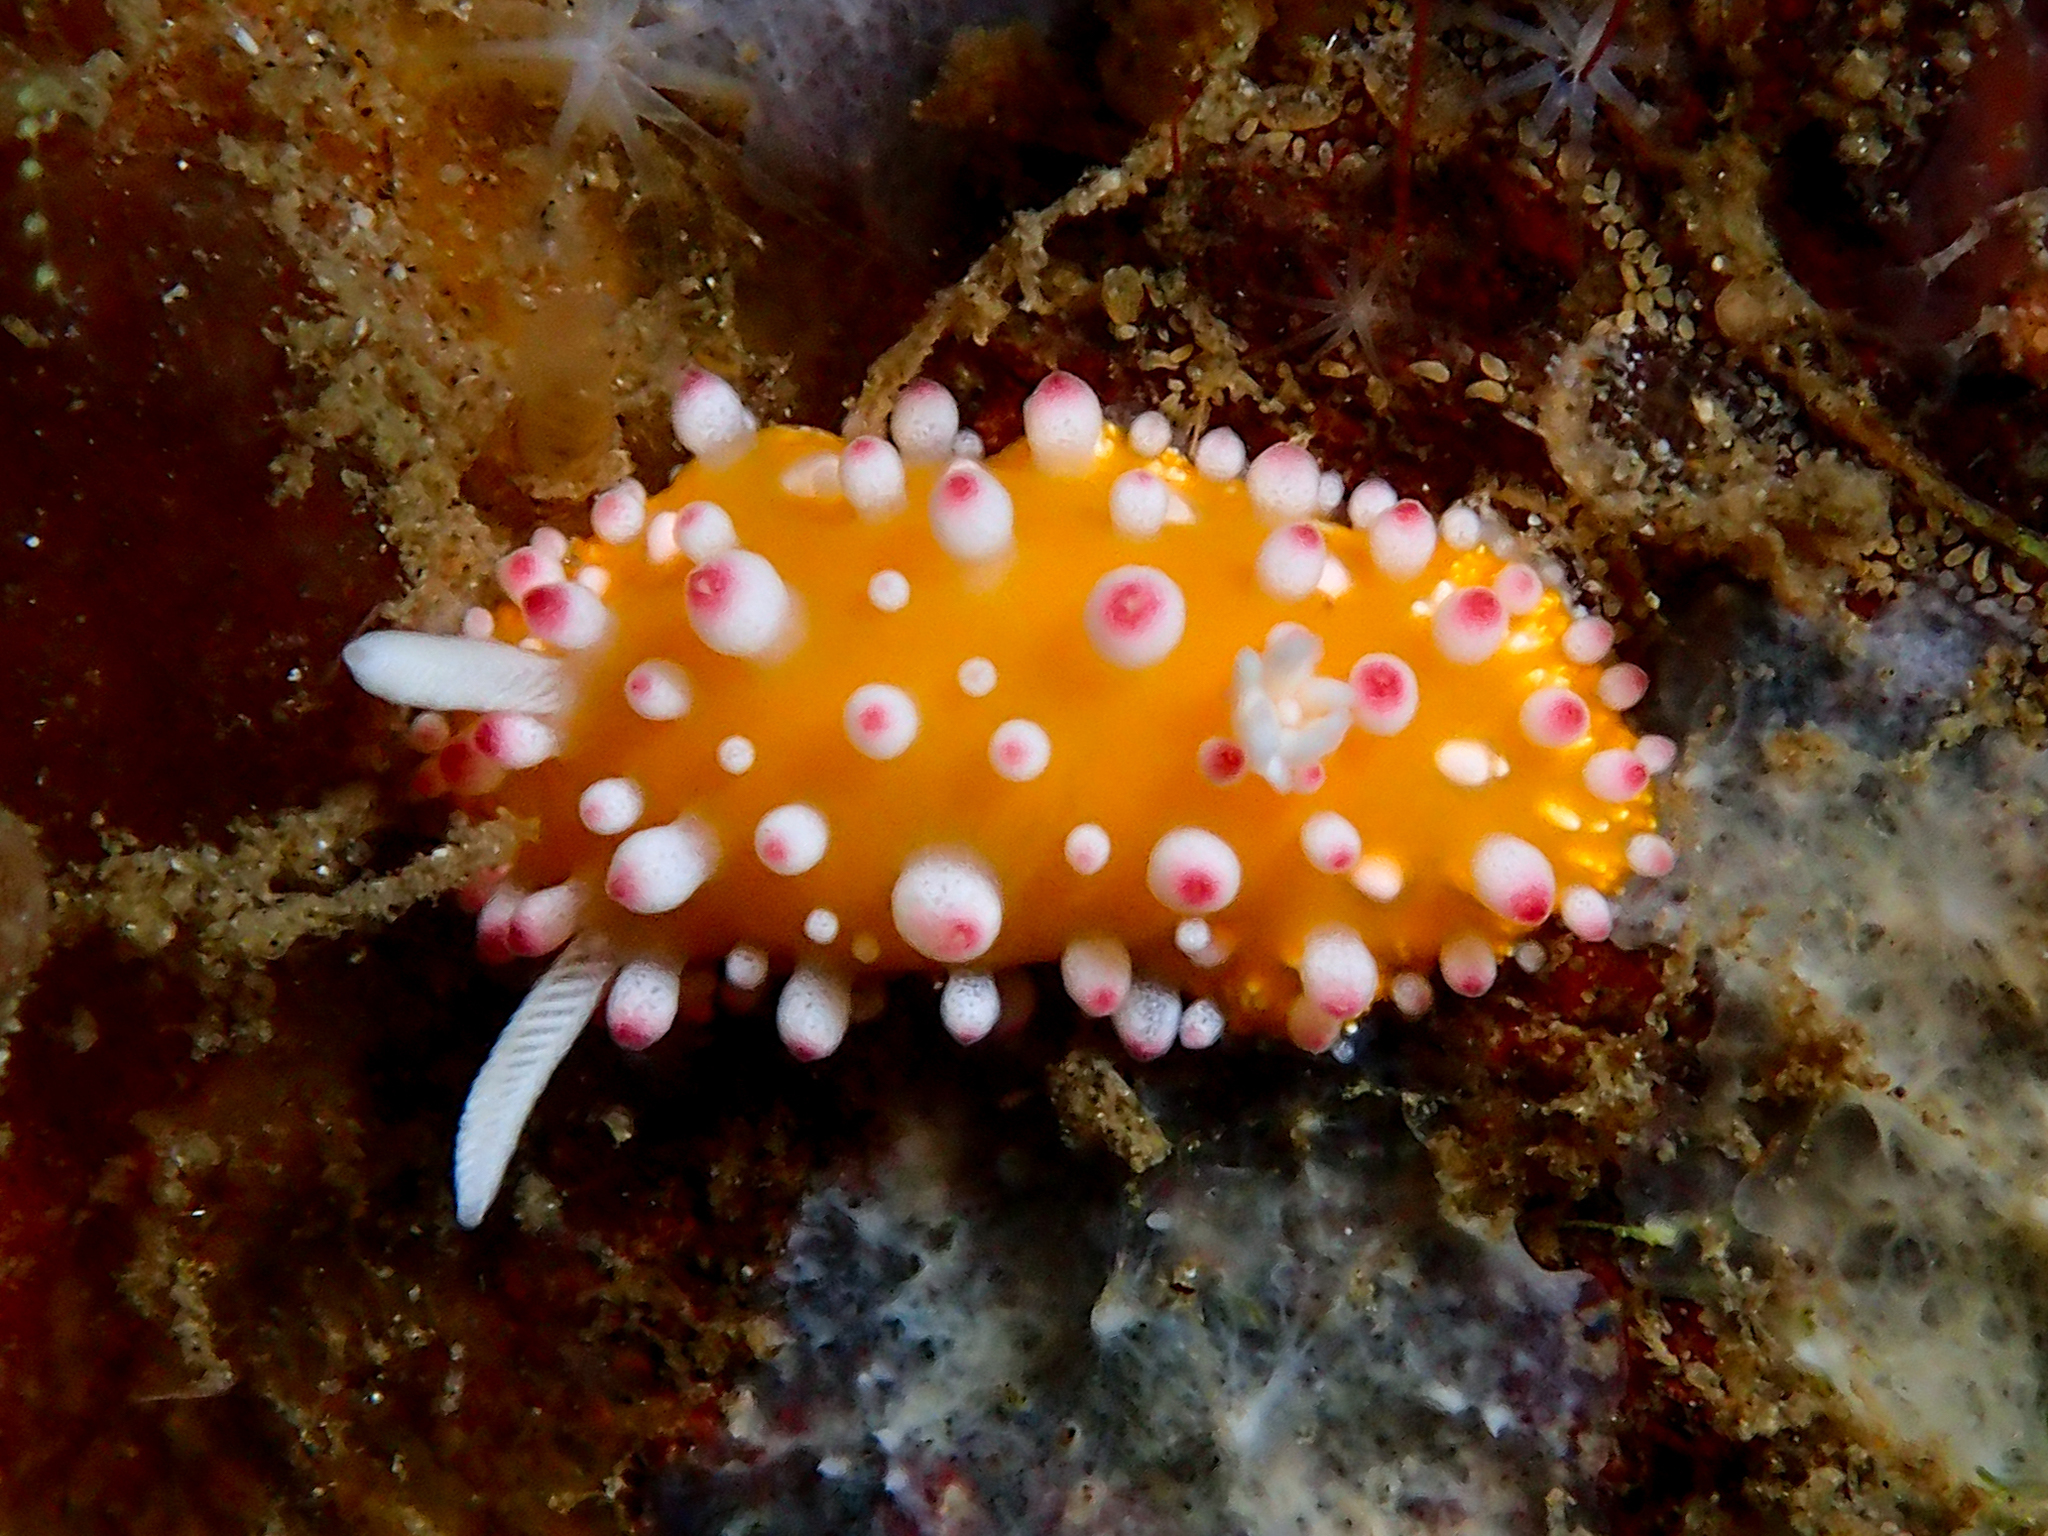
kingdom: Animalia
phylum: Mollusca
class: Gastropoda
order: Nudibranchia
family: Cadlinellidae
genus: Cadlinella
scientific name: Cadlinella ornatissima
